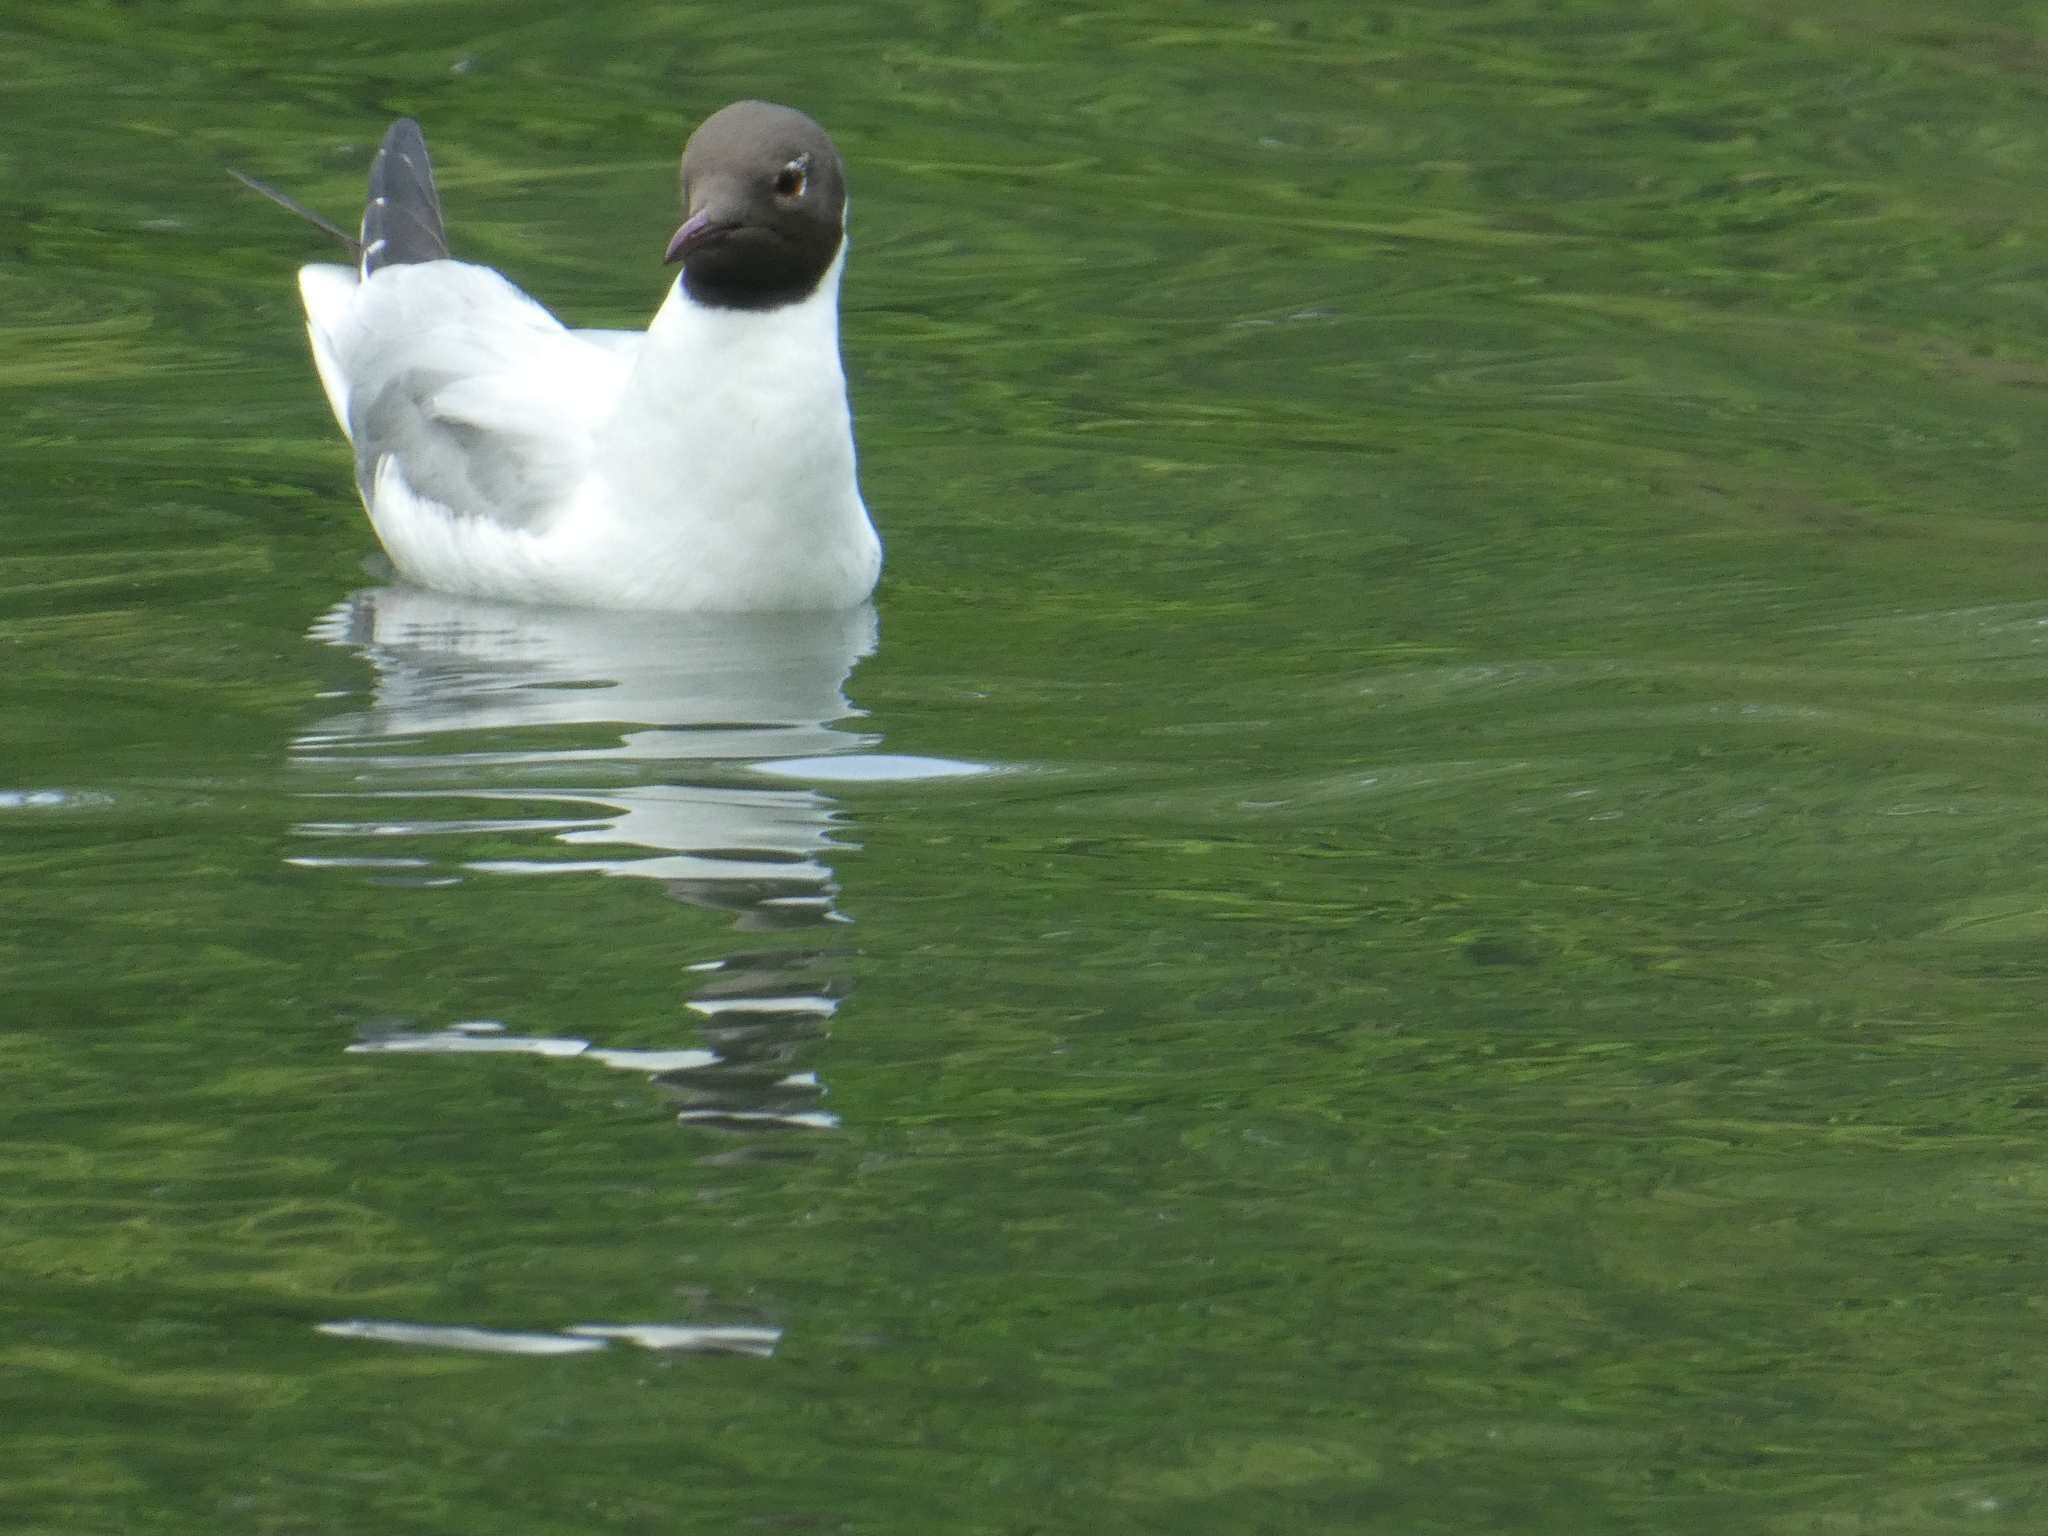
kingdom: Animalia
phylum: Chordata
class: Aves
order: Charadriiformes
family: Laridae
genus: Chroicocephalus
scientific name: Chroicocephalus ridibundus
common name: Black-headed gull
